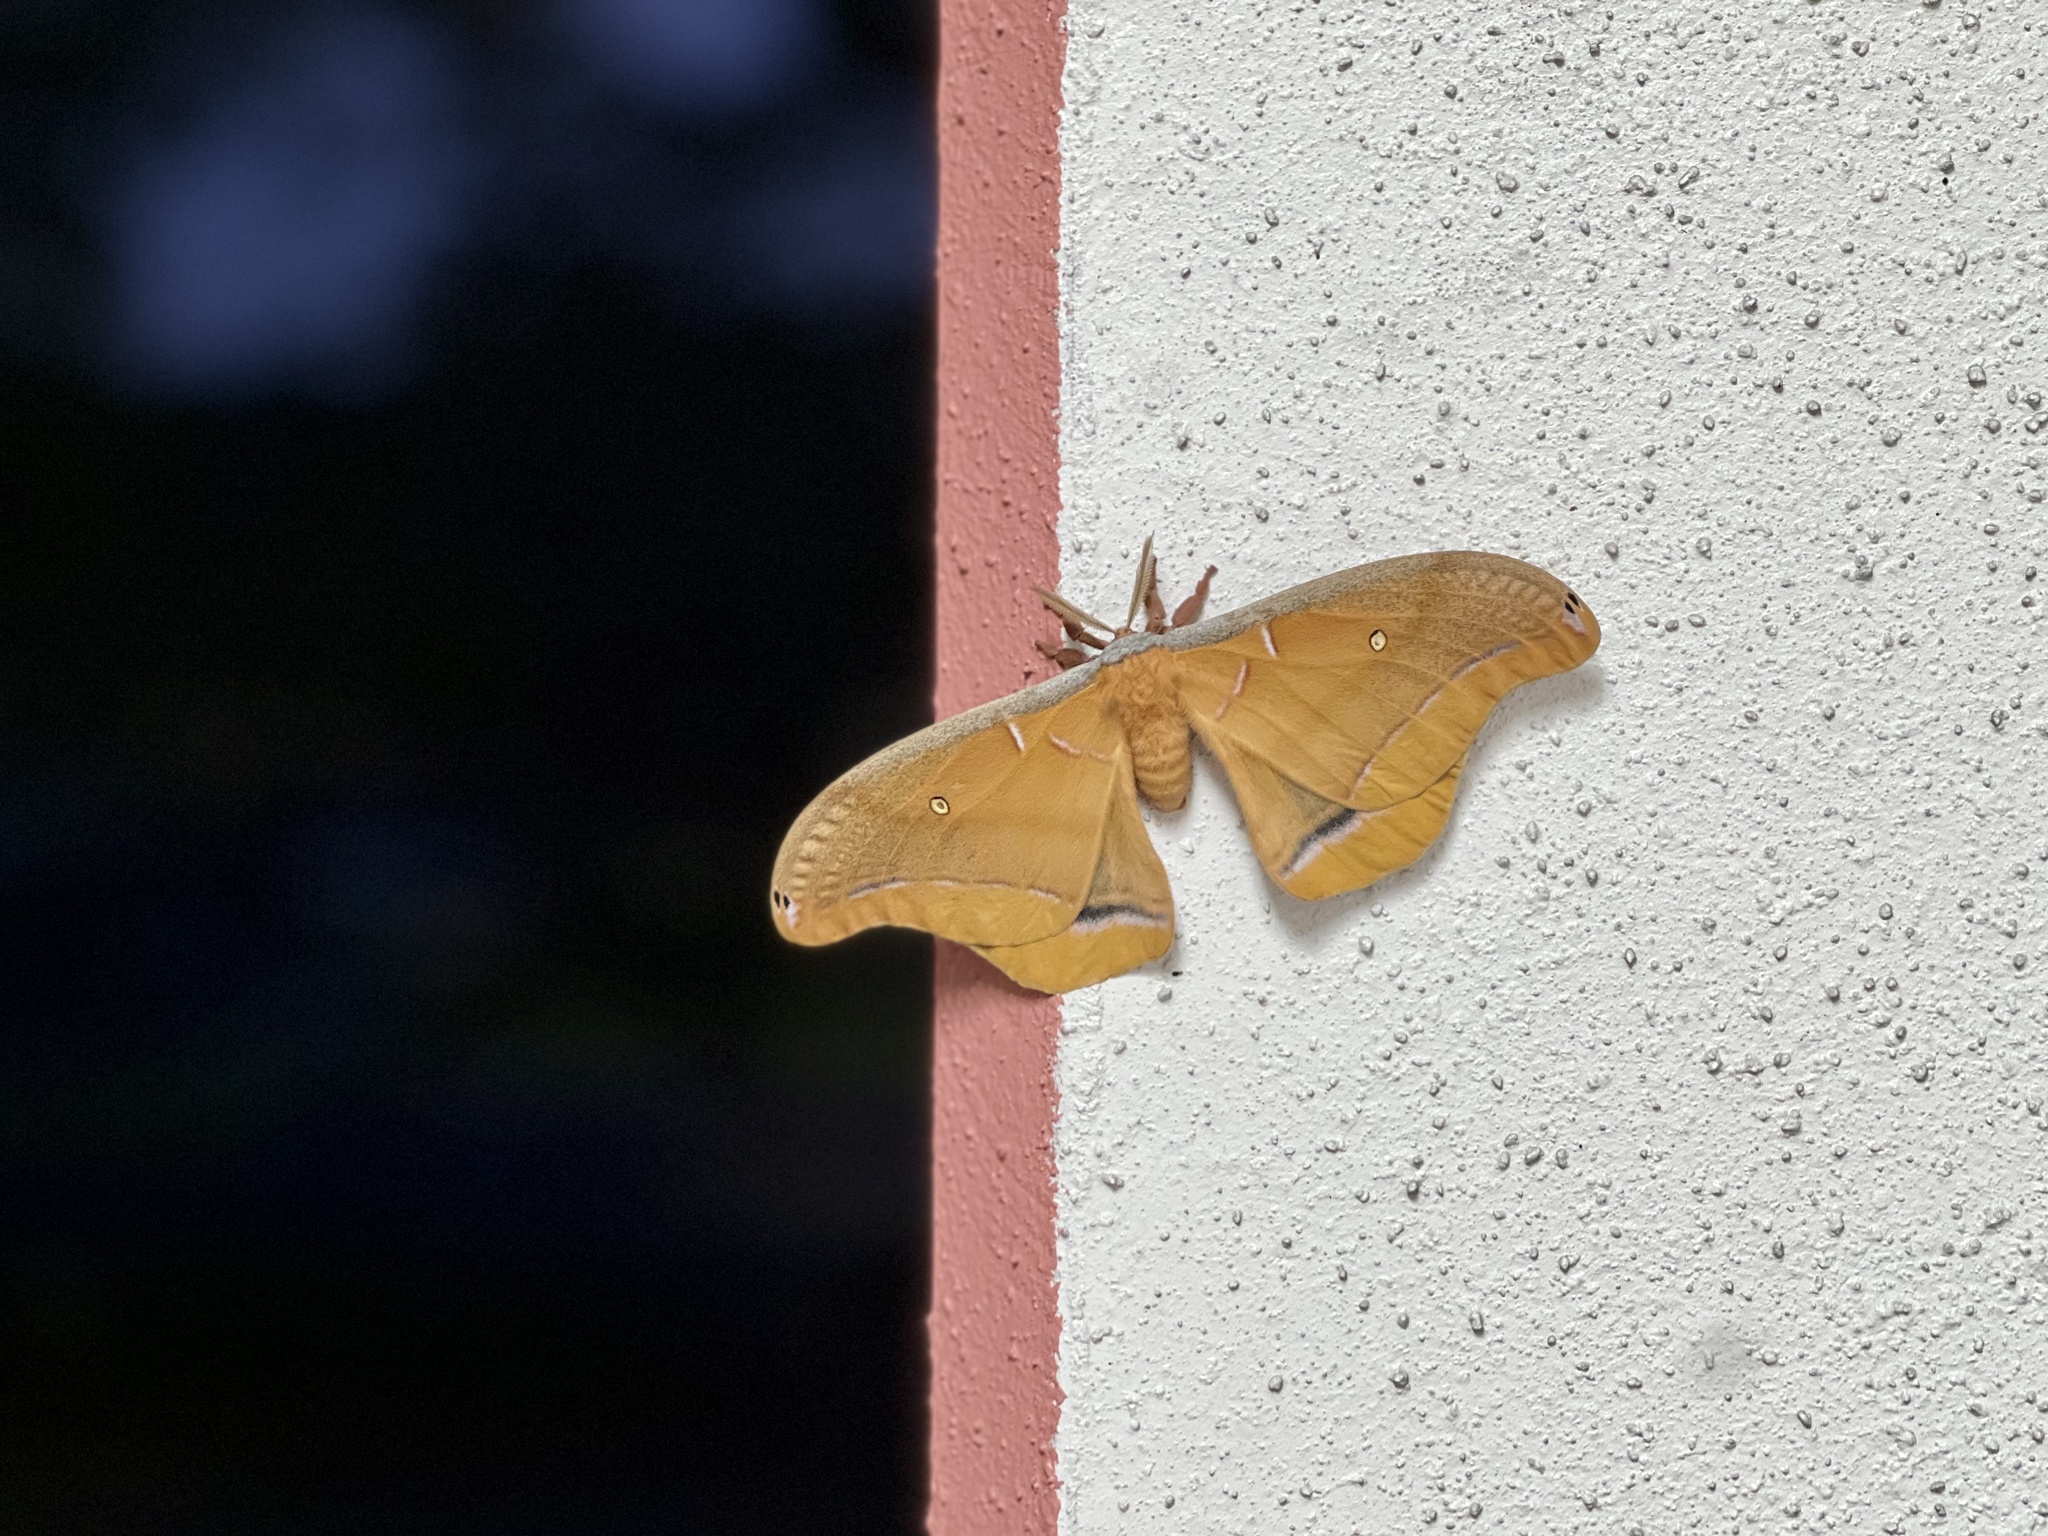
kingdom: Animalia
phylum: Arthropoda
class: Insecta
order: Lepidoptera
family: Saturniidae
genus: Antheraea
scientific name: Antheraea polyphemus
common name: Polyphemus moth
